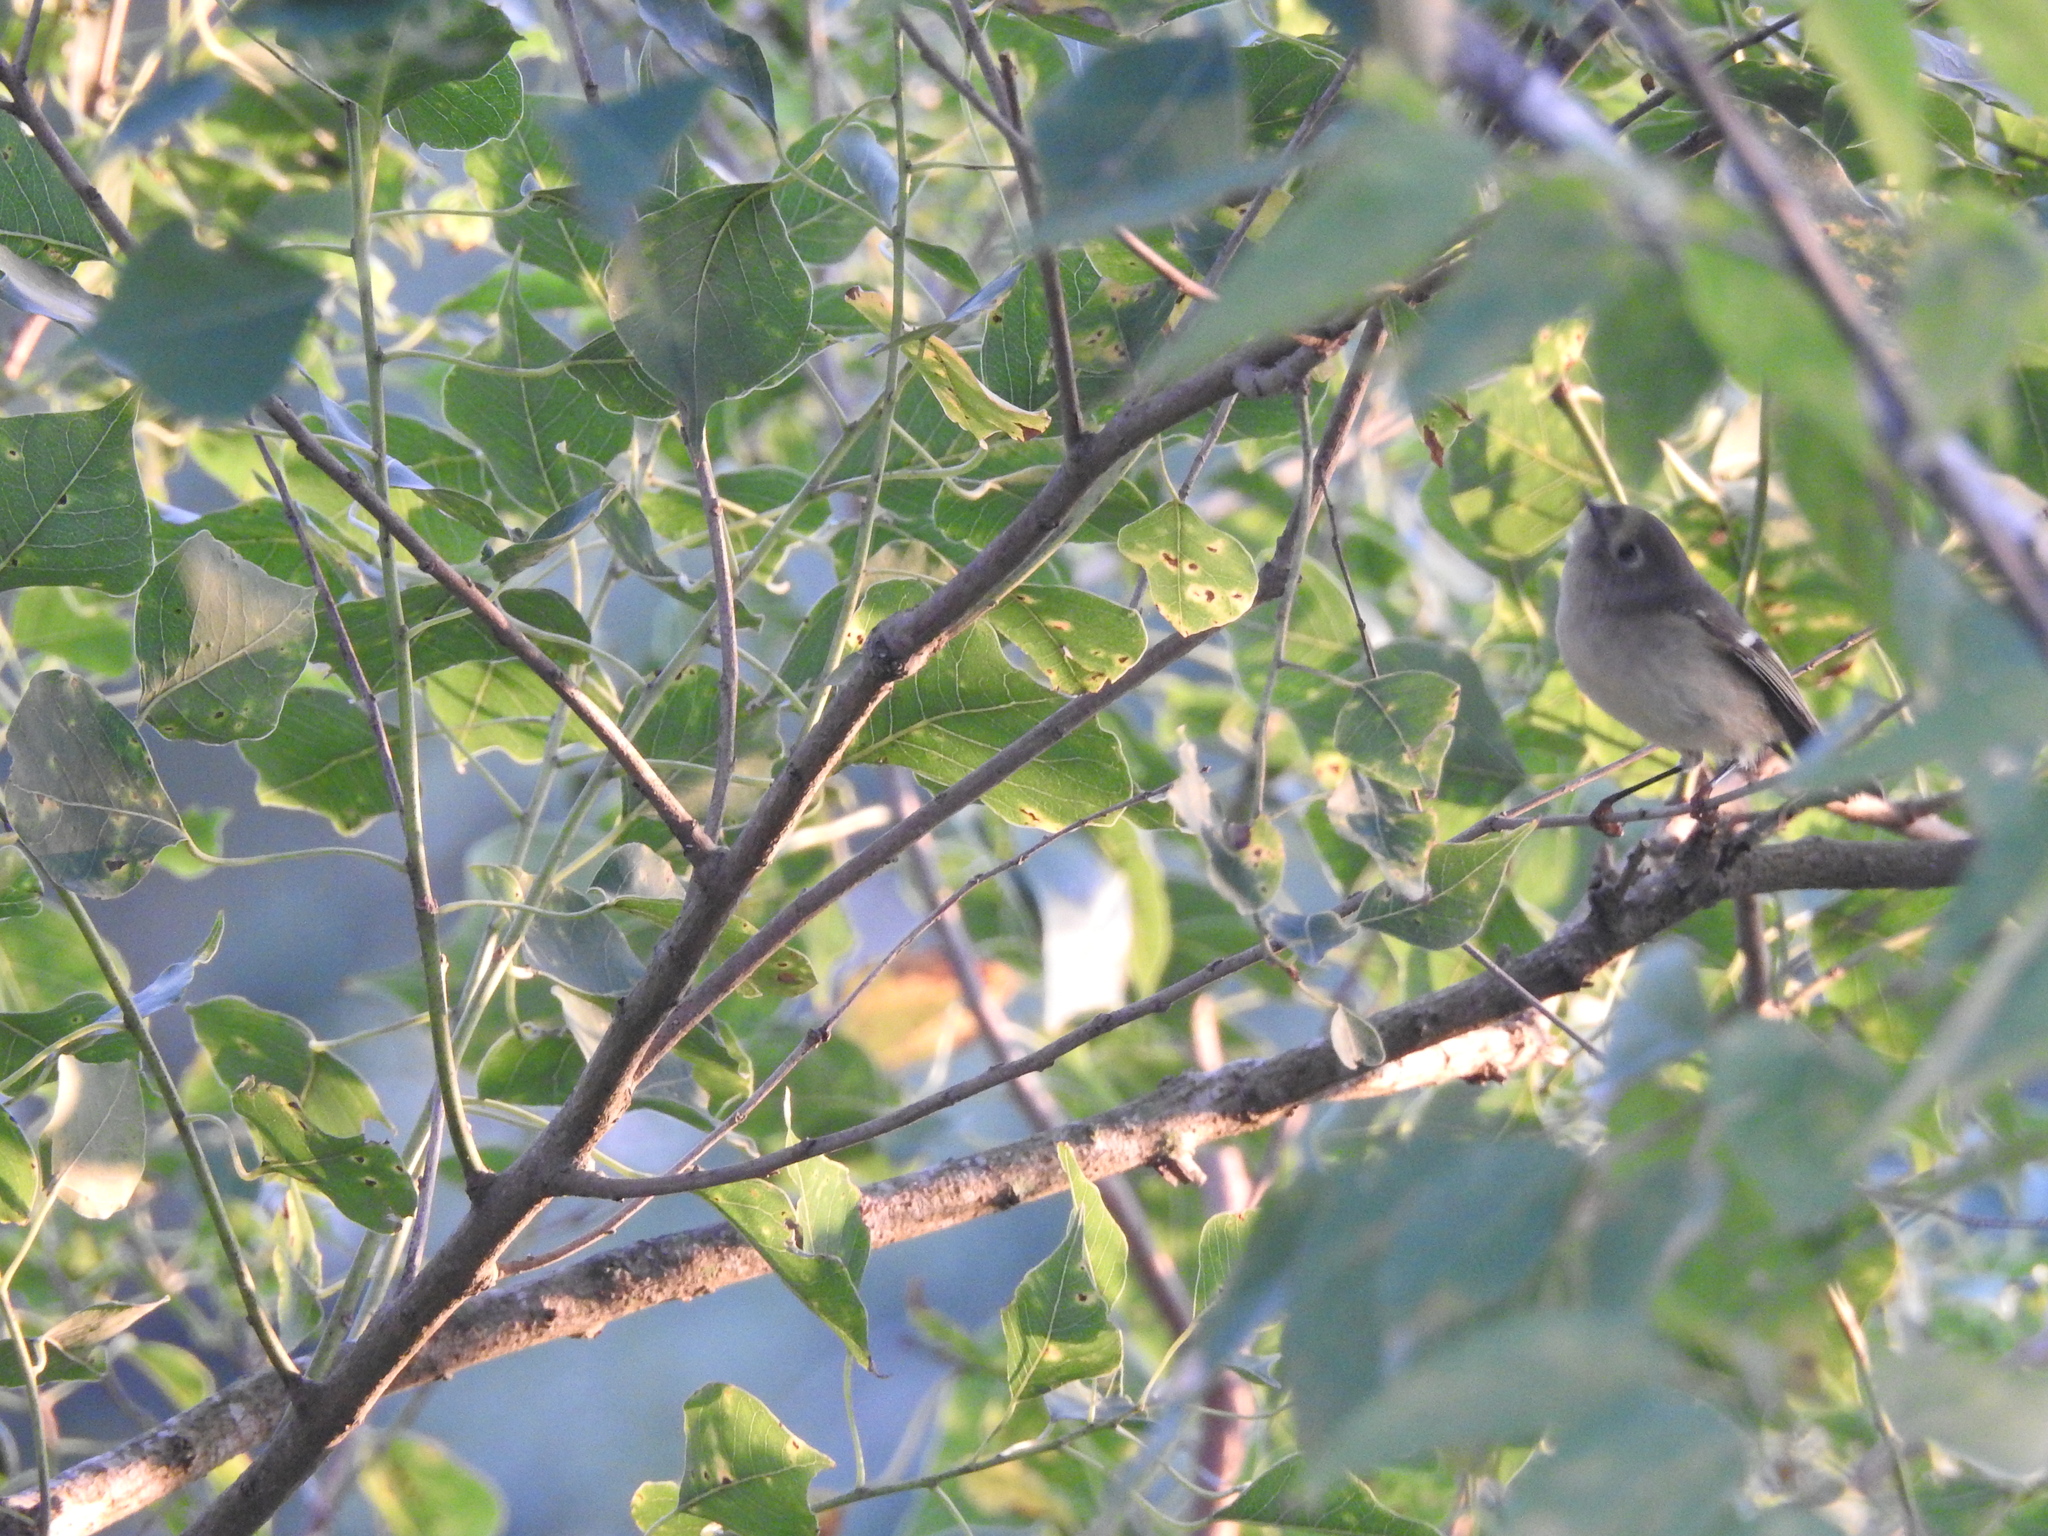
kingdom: Animalia
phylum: Chordata
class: Aves
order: Passeriformes
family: Regulidae
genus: Regulus
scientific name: Regulus calendula
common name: Ruby-crowned kinglet
